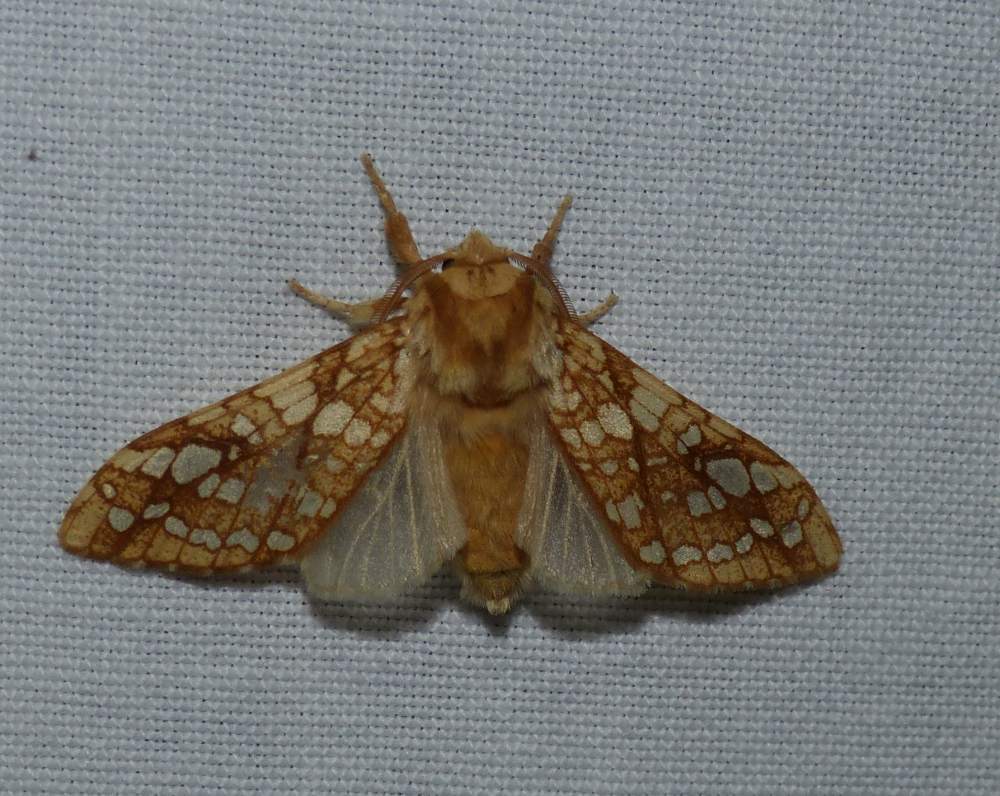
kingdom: Animalia
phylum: Arthropoda
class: Insecta
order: Lepidoptera
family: Erebidae
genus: Lophocampa
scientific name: Lophocampa caryae
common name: Hickory tussock moth
